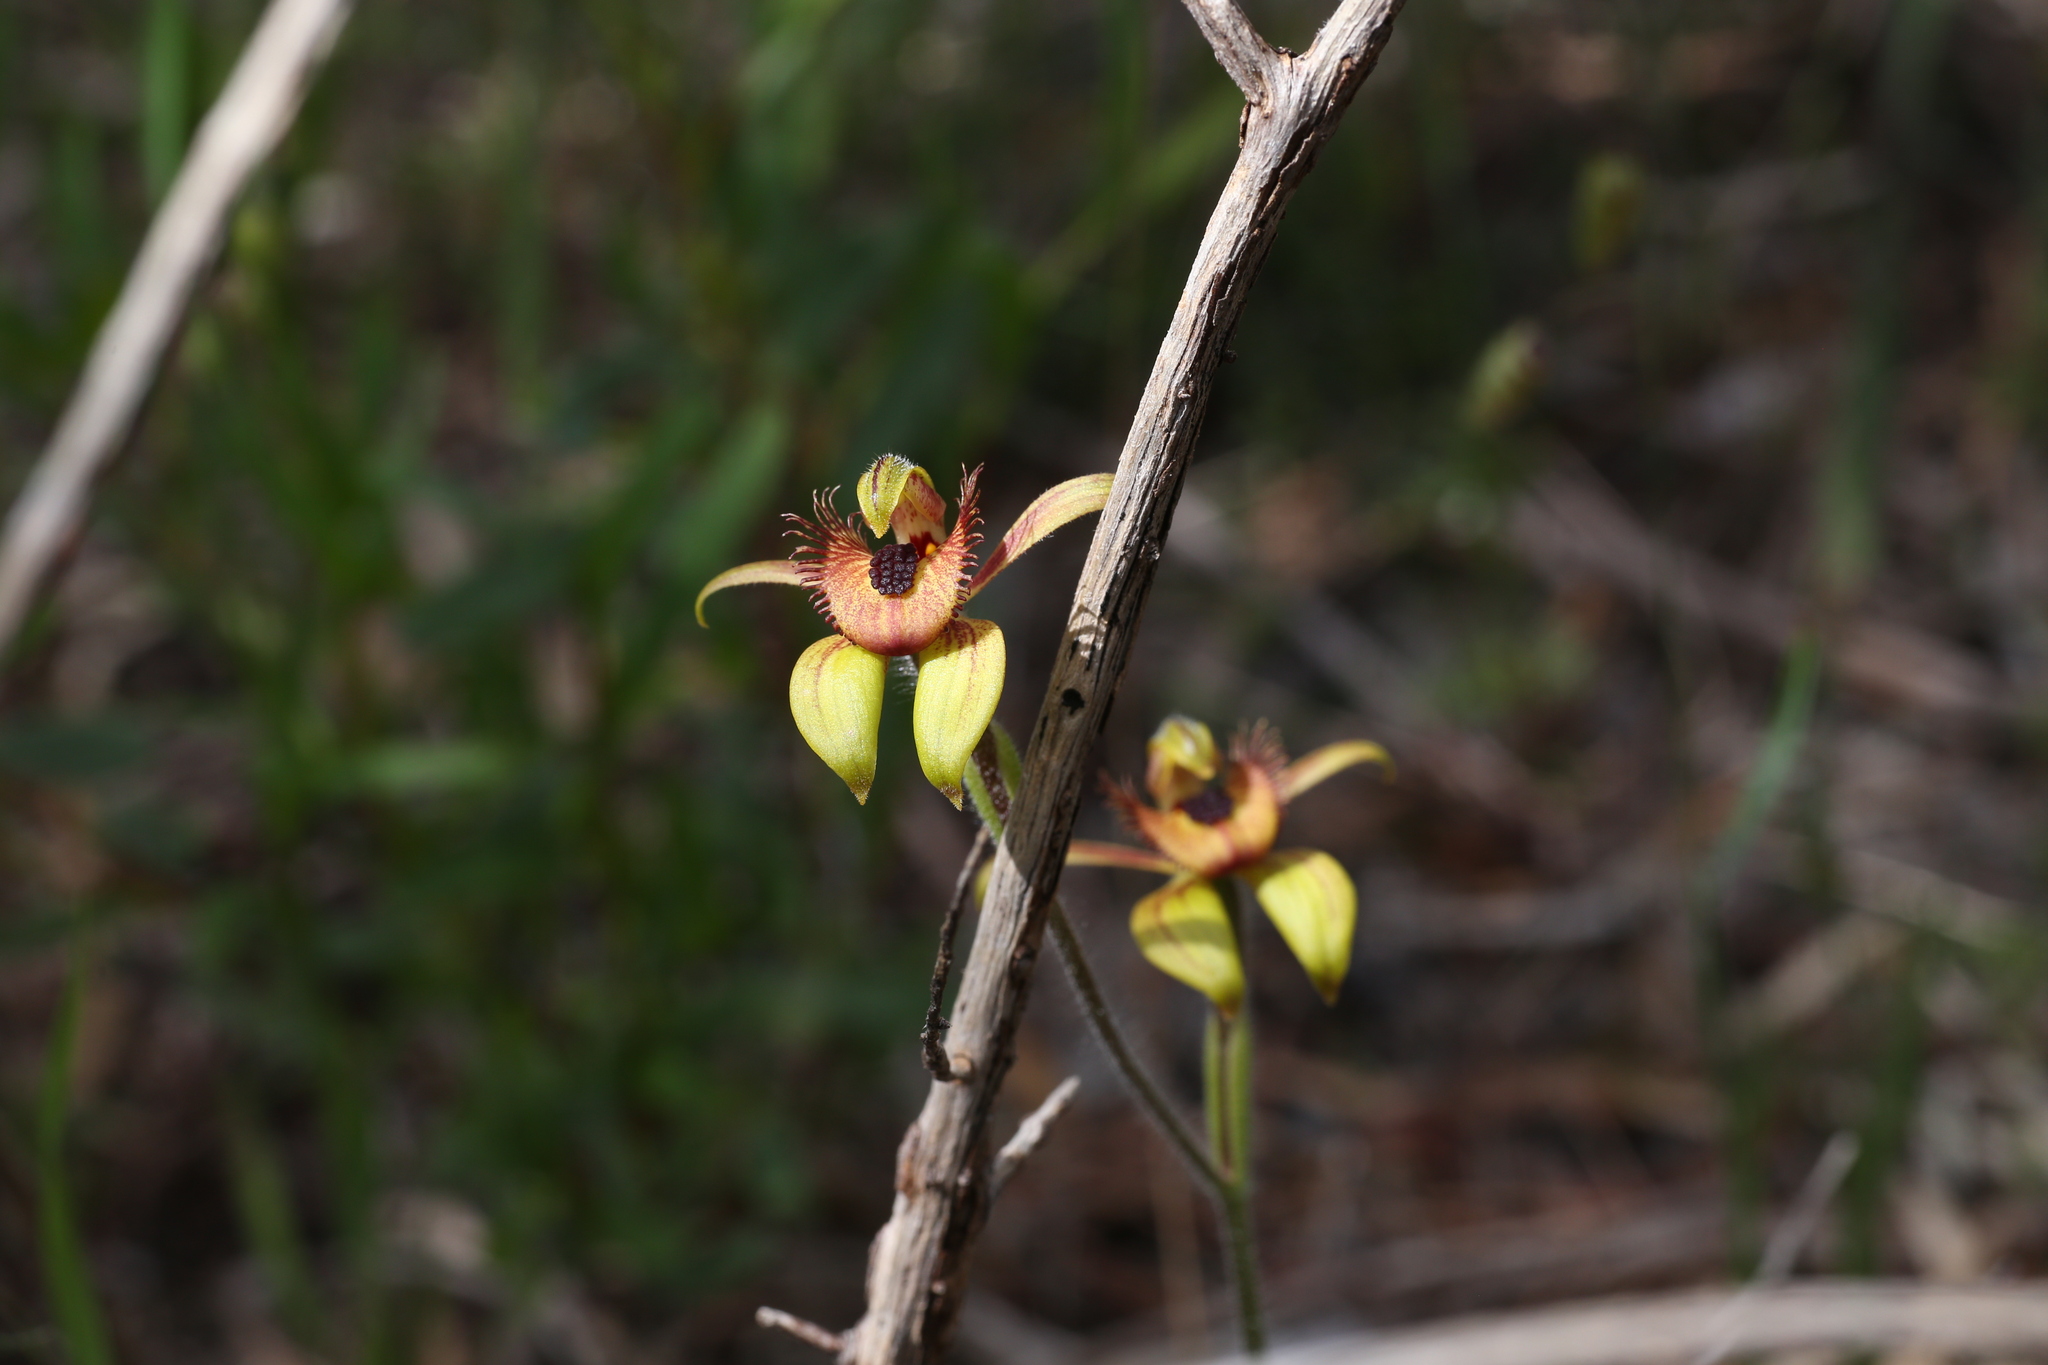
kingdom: Plantae
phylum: Tracheophyta
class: Liliopsida
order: Asparagales
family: Orchidaceae
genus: Caladenia
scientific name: Caladenia discoidea
